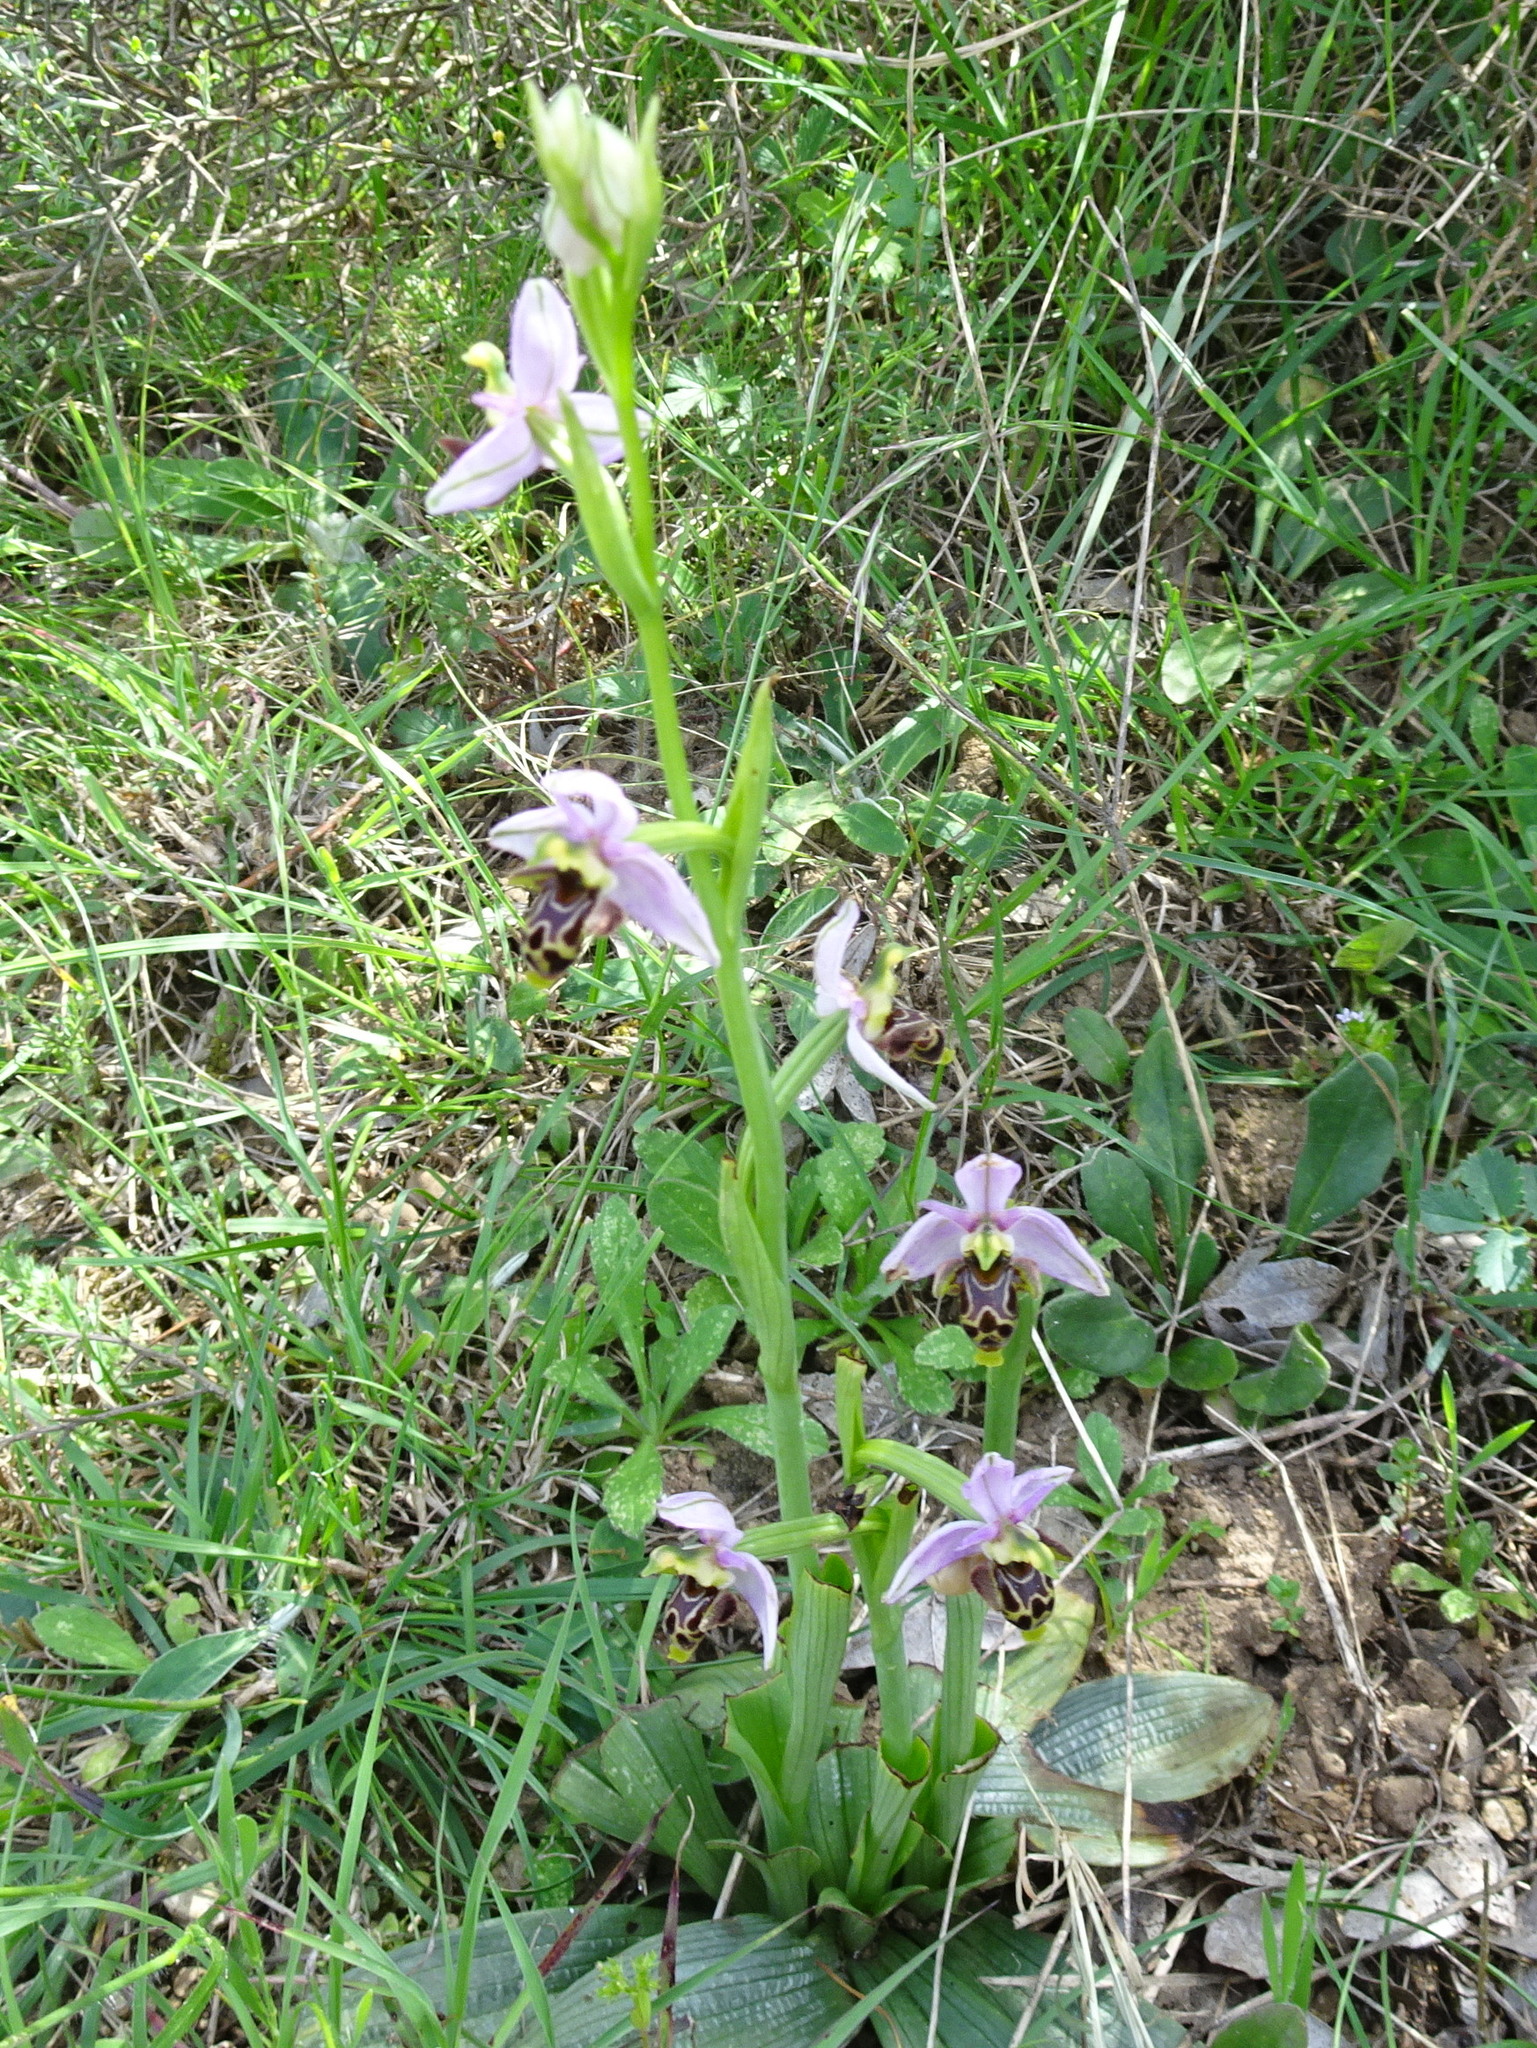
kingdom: Plantae
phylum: Tracheophyta
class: Liliopsida
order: Asparagales
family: Orchidaceae
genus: Ophrys
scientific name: Ophrys scolopax
